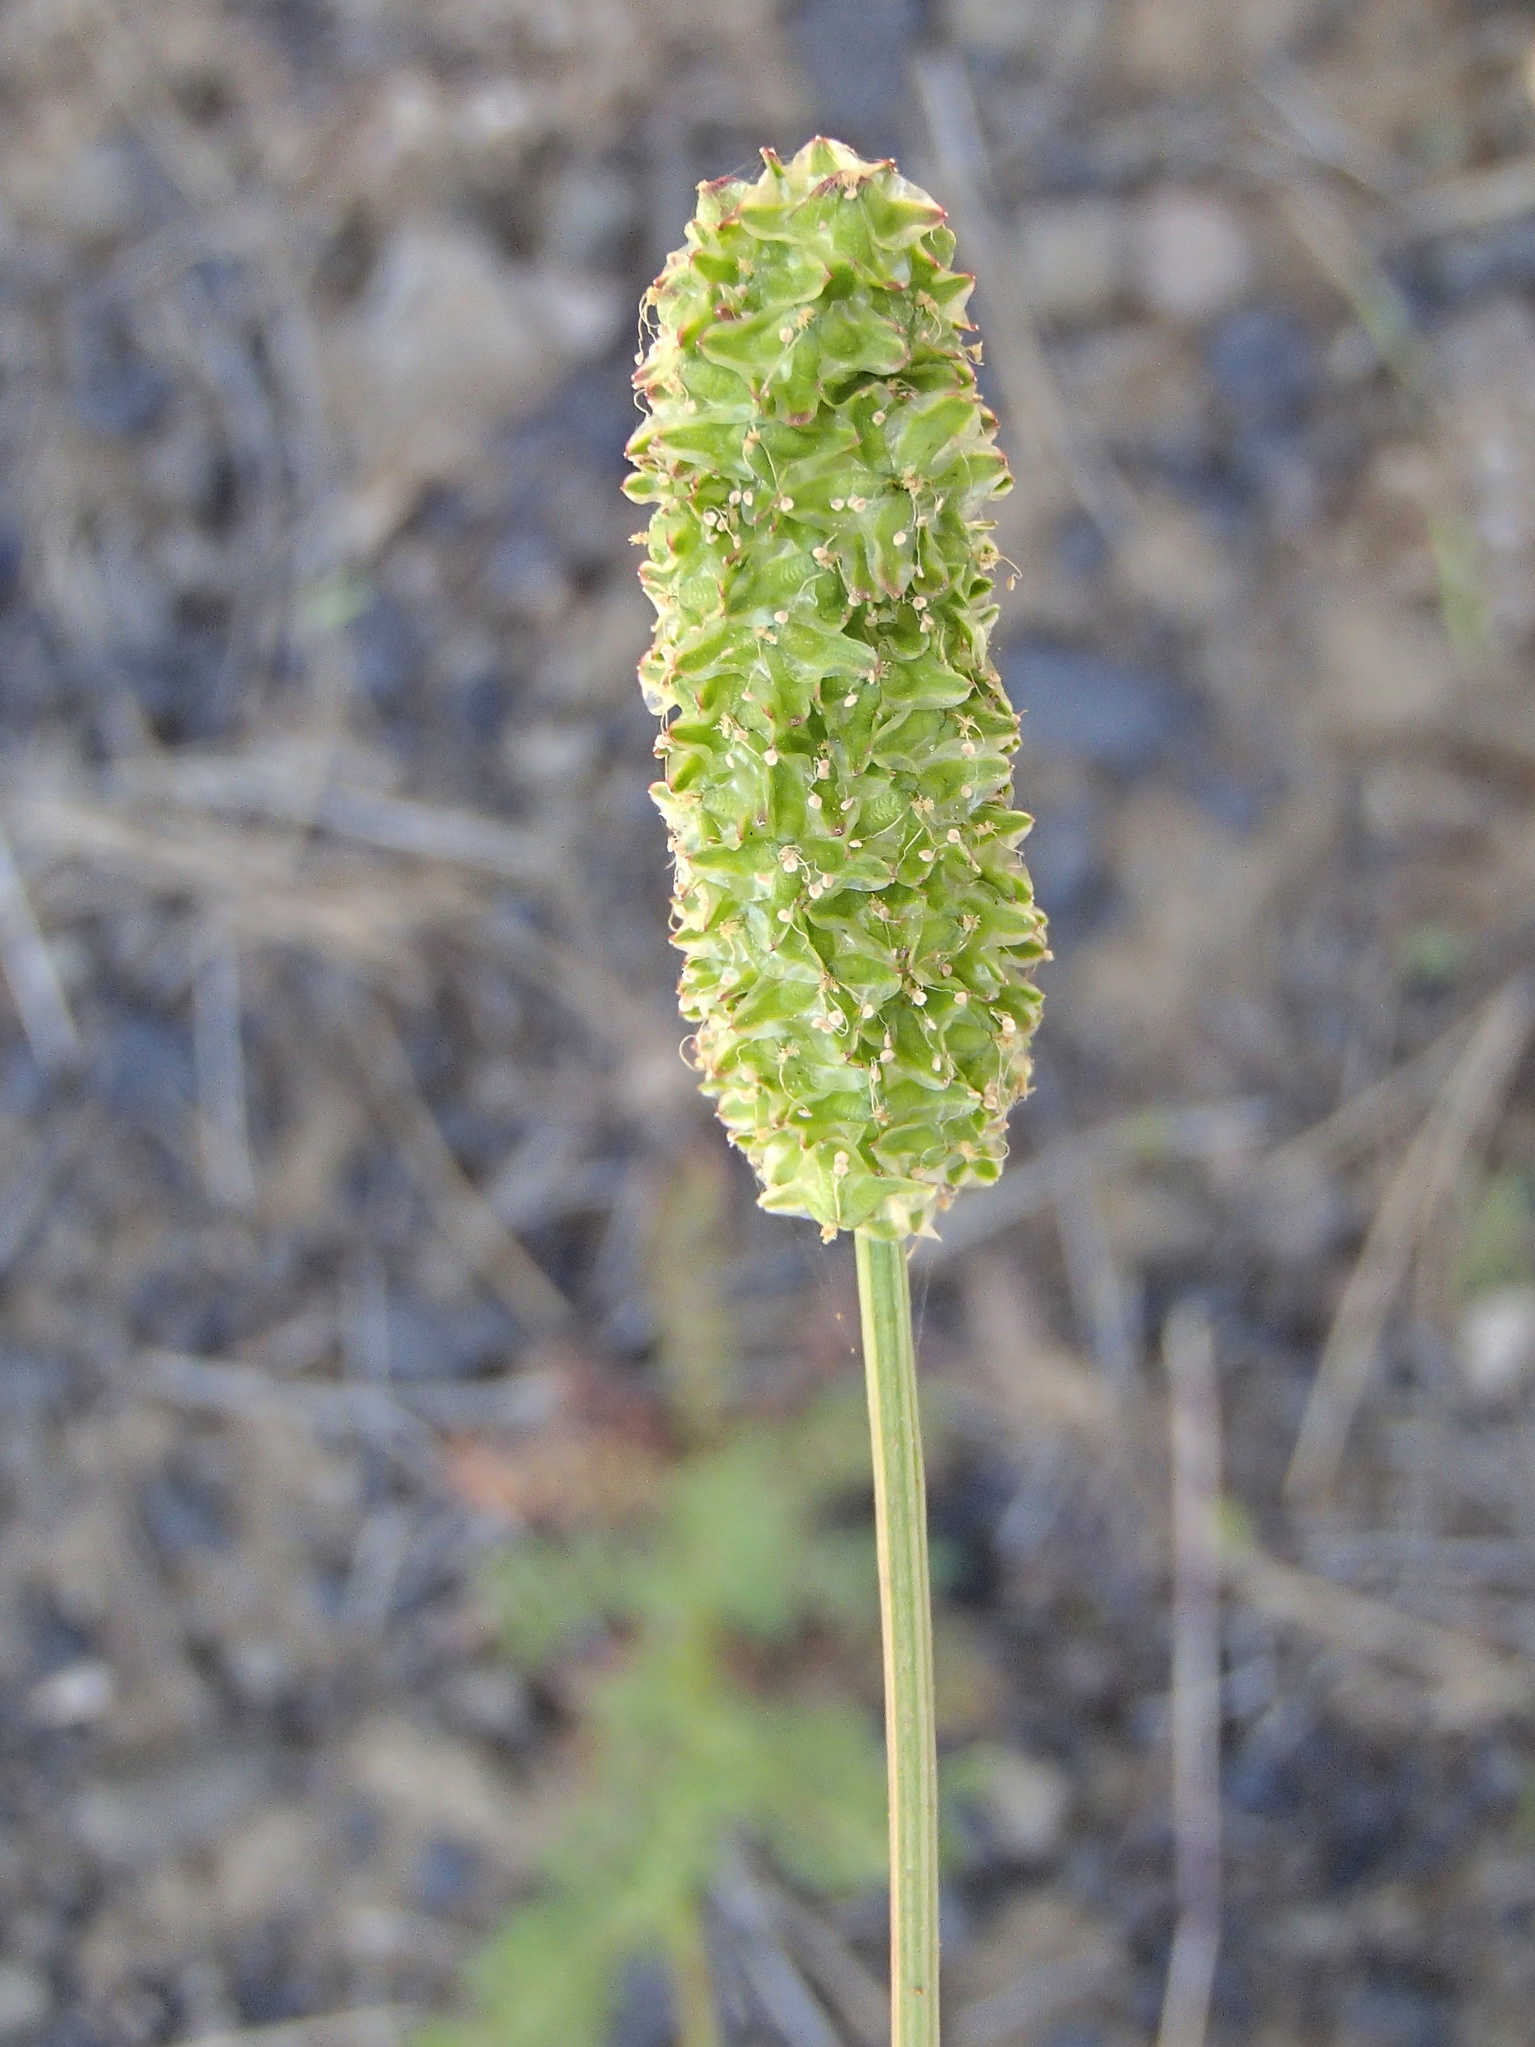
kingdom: Plantae
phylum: Tracheophyta
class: Magnoliopsida
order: Rosales
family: Rosaceae
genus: Poteridium
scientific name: Poteridium occidentale
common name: Western burnet
